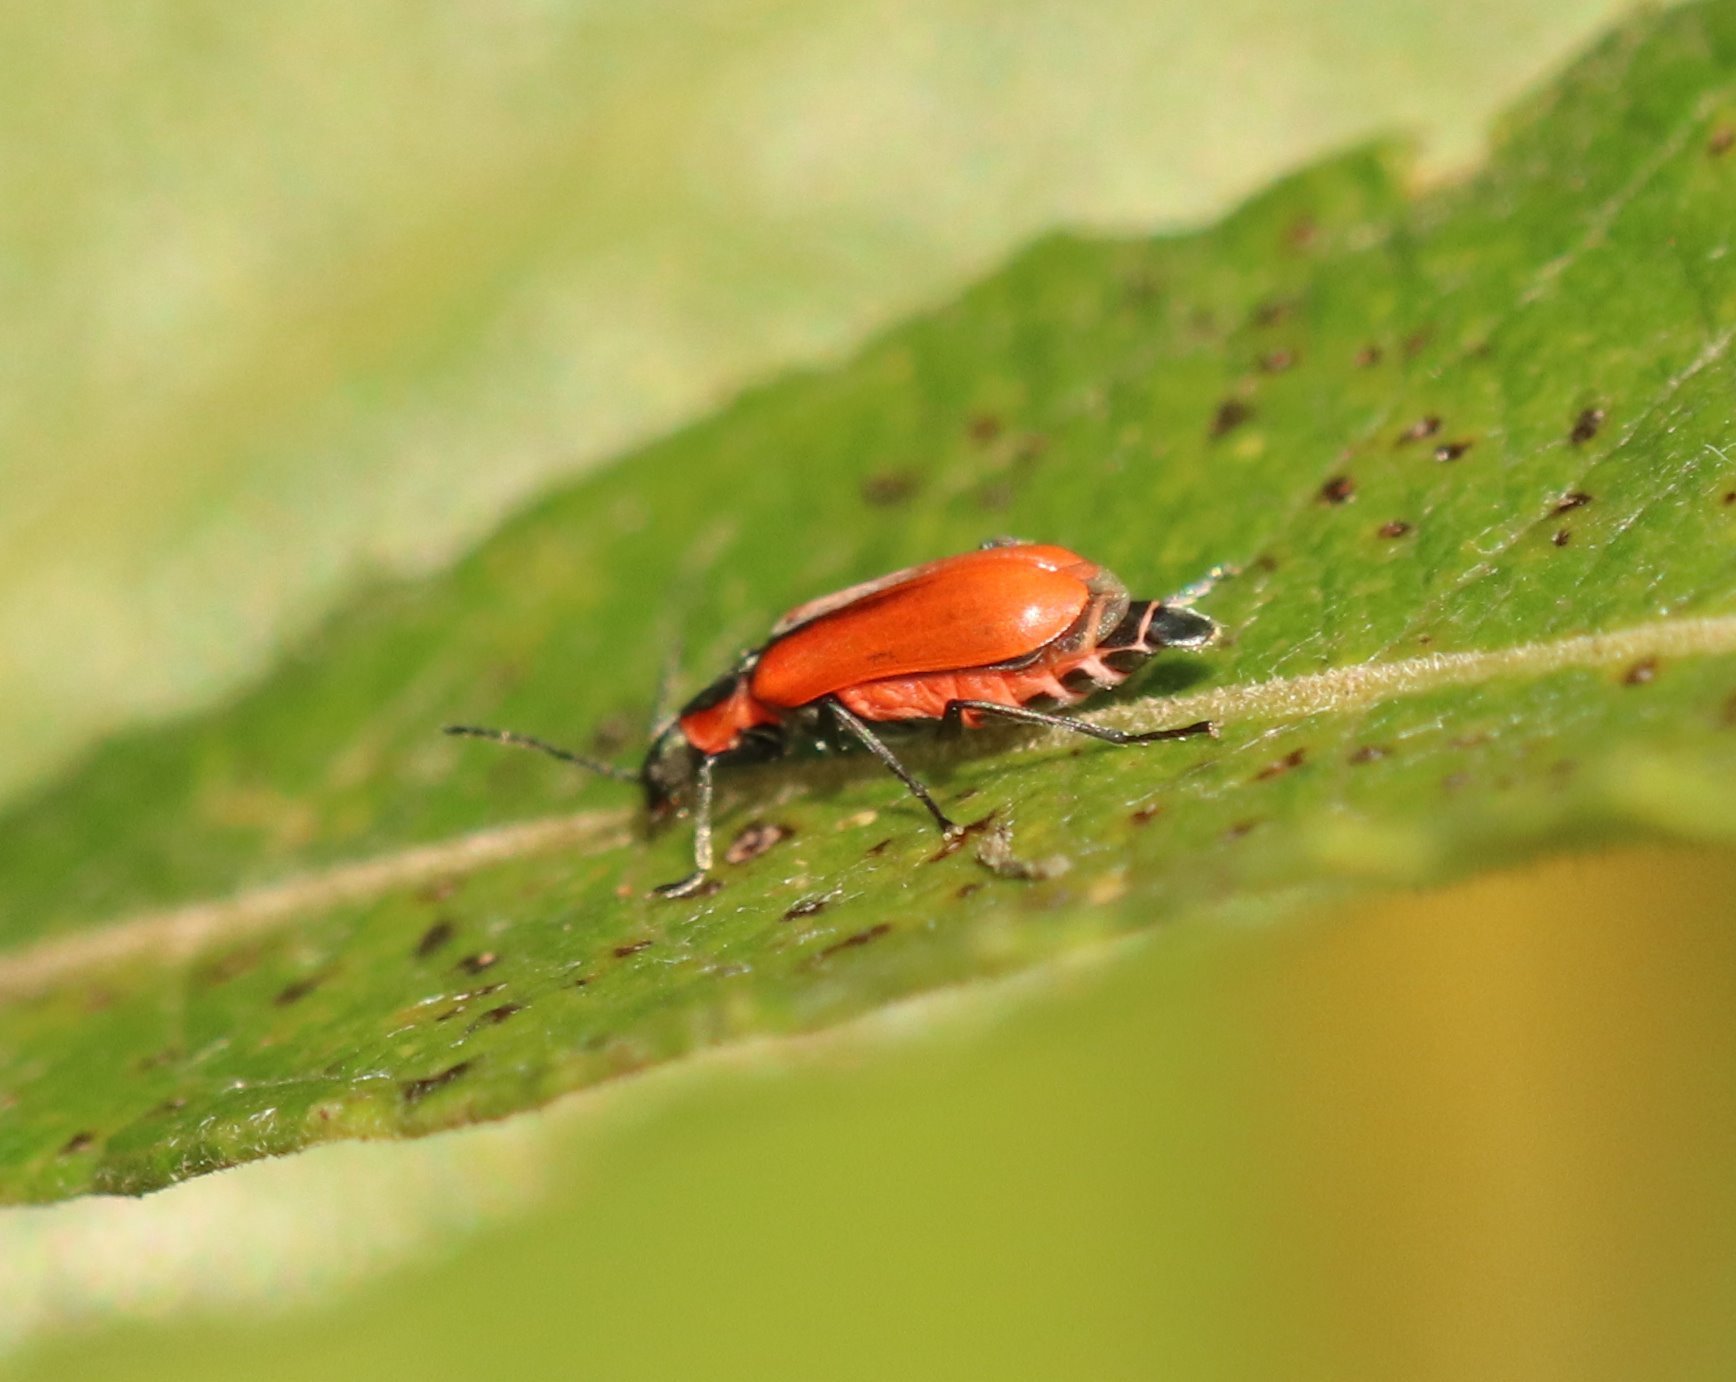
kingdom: Animalia
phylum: Arthropoda
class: Insecta
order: Coleoptera
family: Melyridae
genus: Anthocomus
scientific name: Anthocomus rufus
